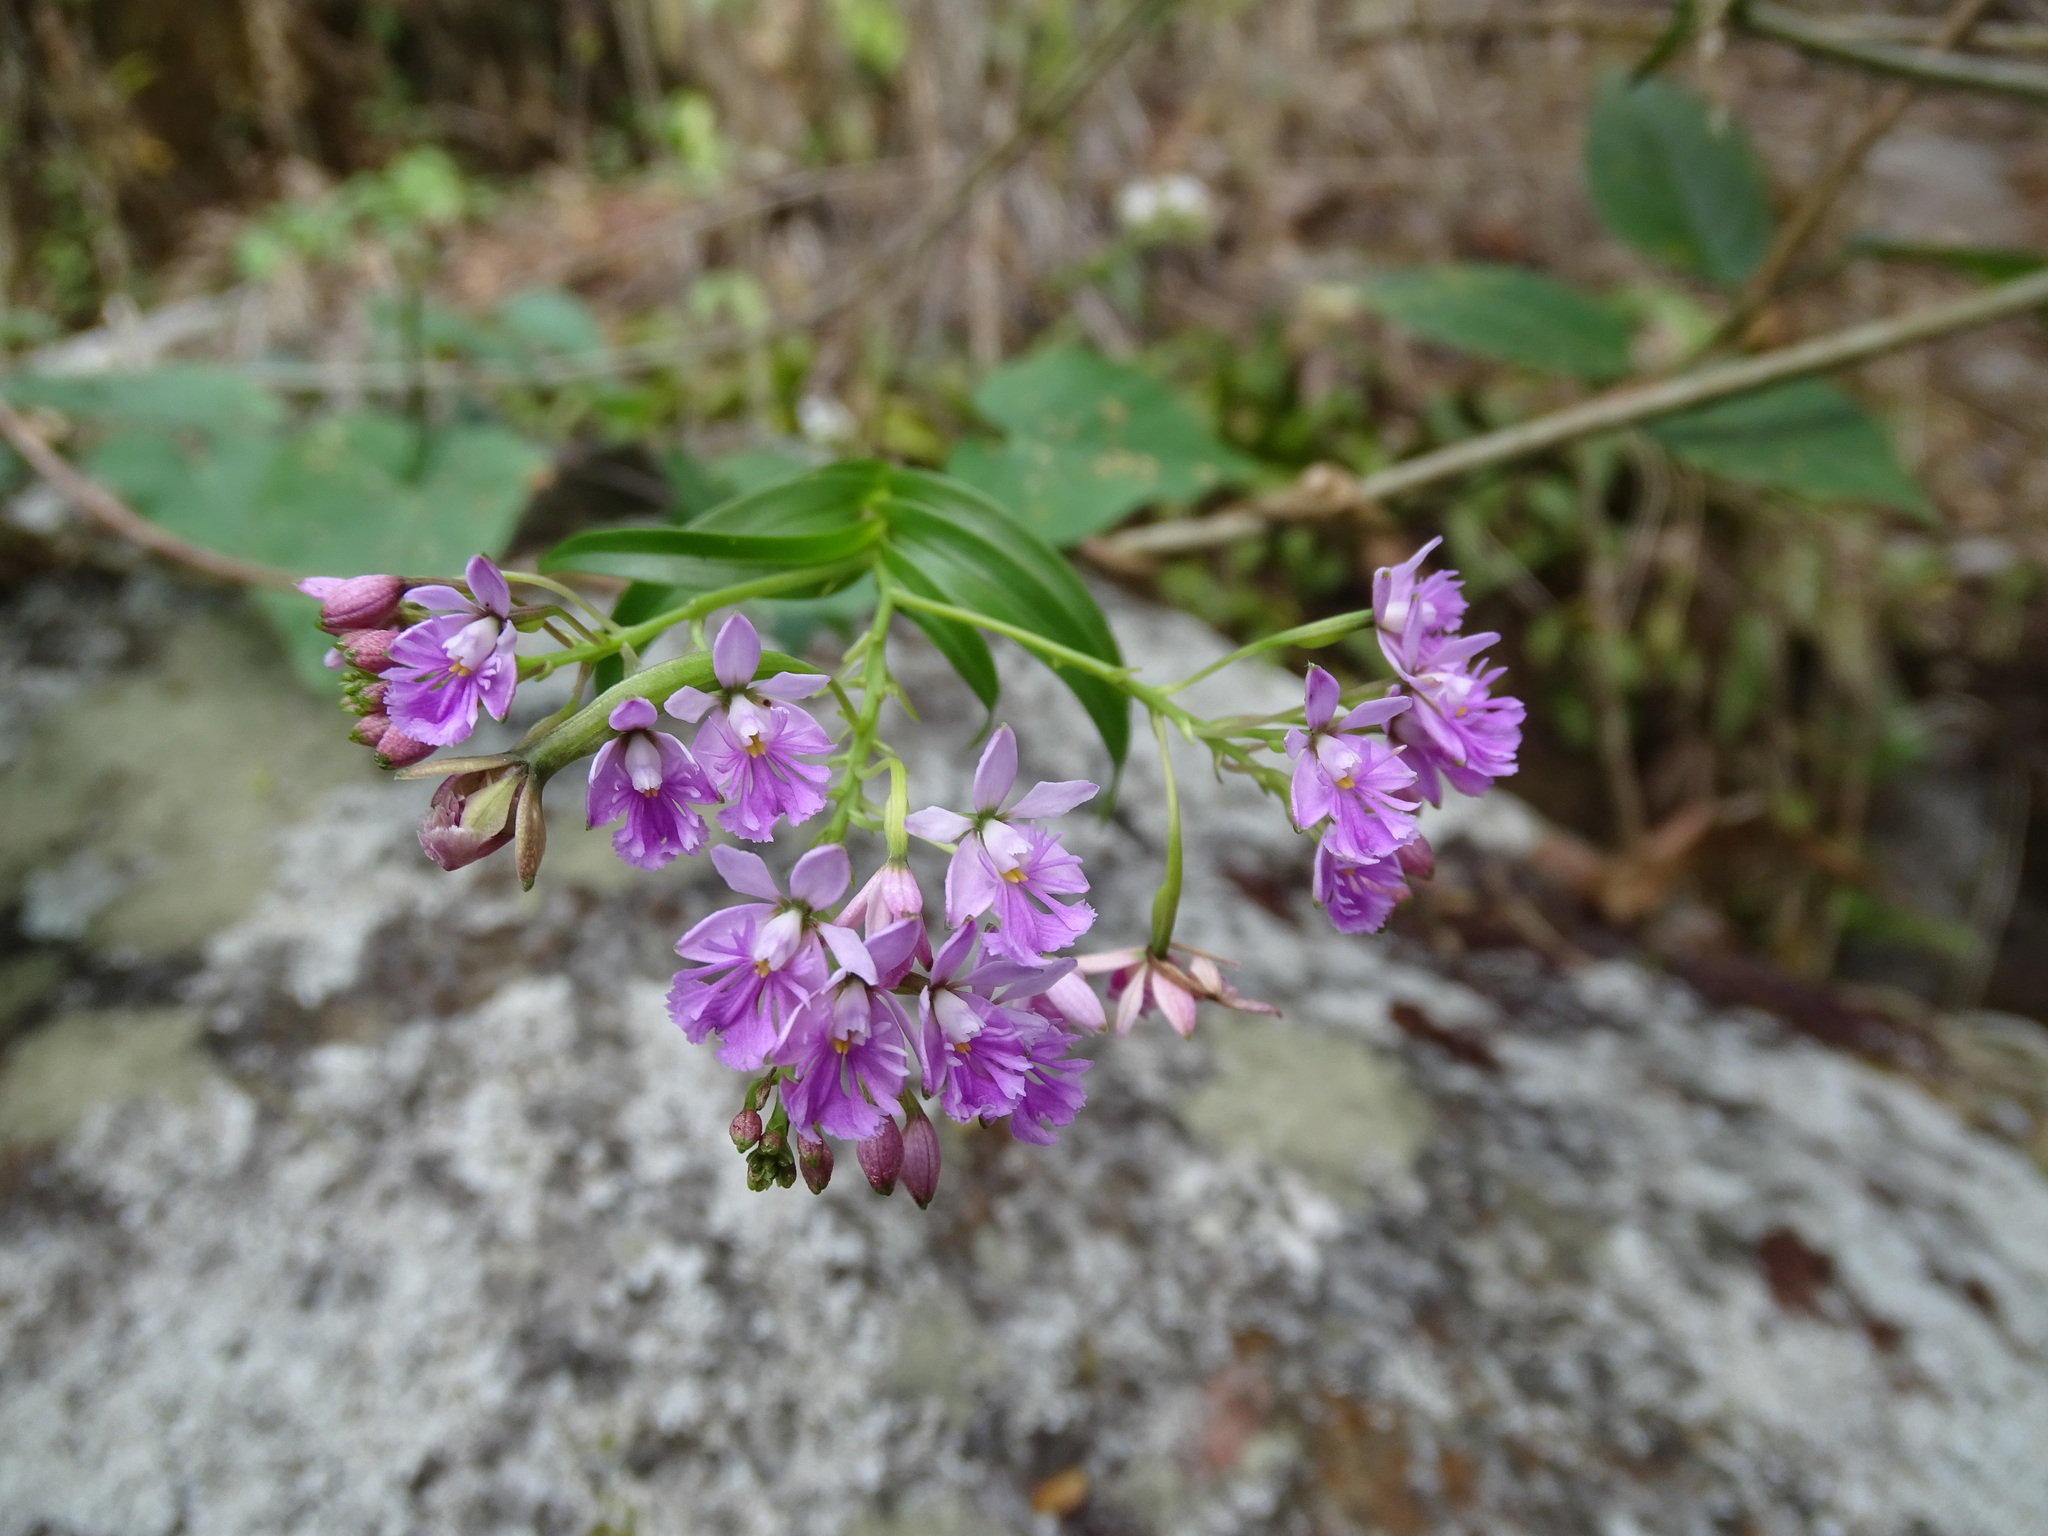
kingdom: Plantae
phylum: Tracheophyta
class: Liliopsida
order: Asparagales
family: Orchidaceae
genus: Epidendrum
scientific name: Epidendrum caligarium
